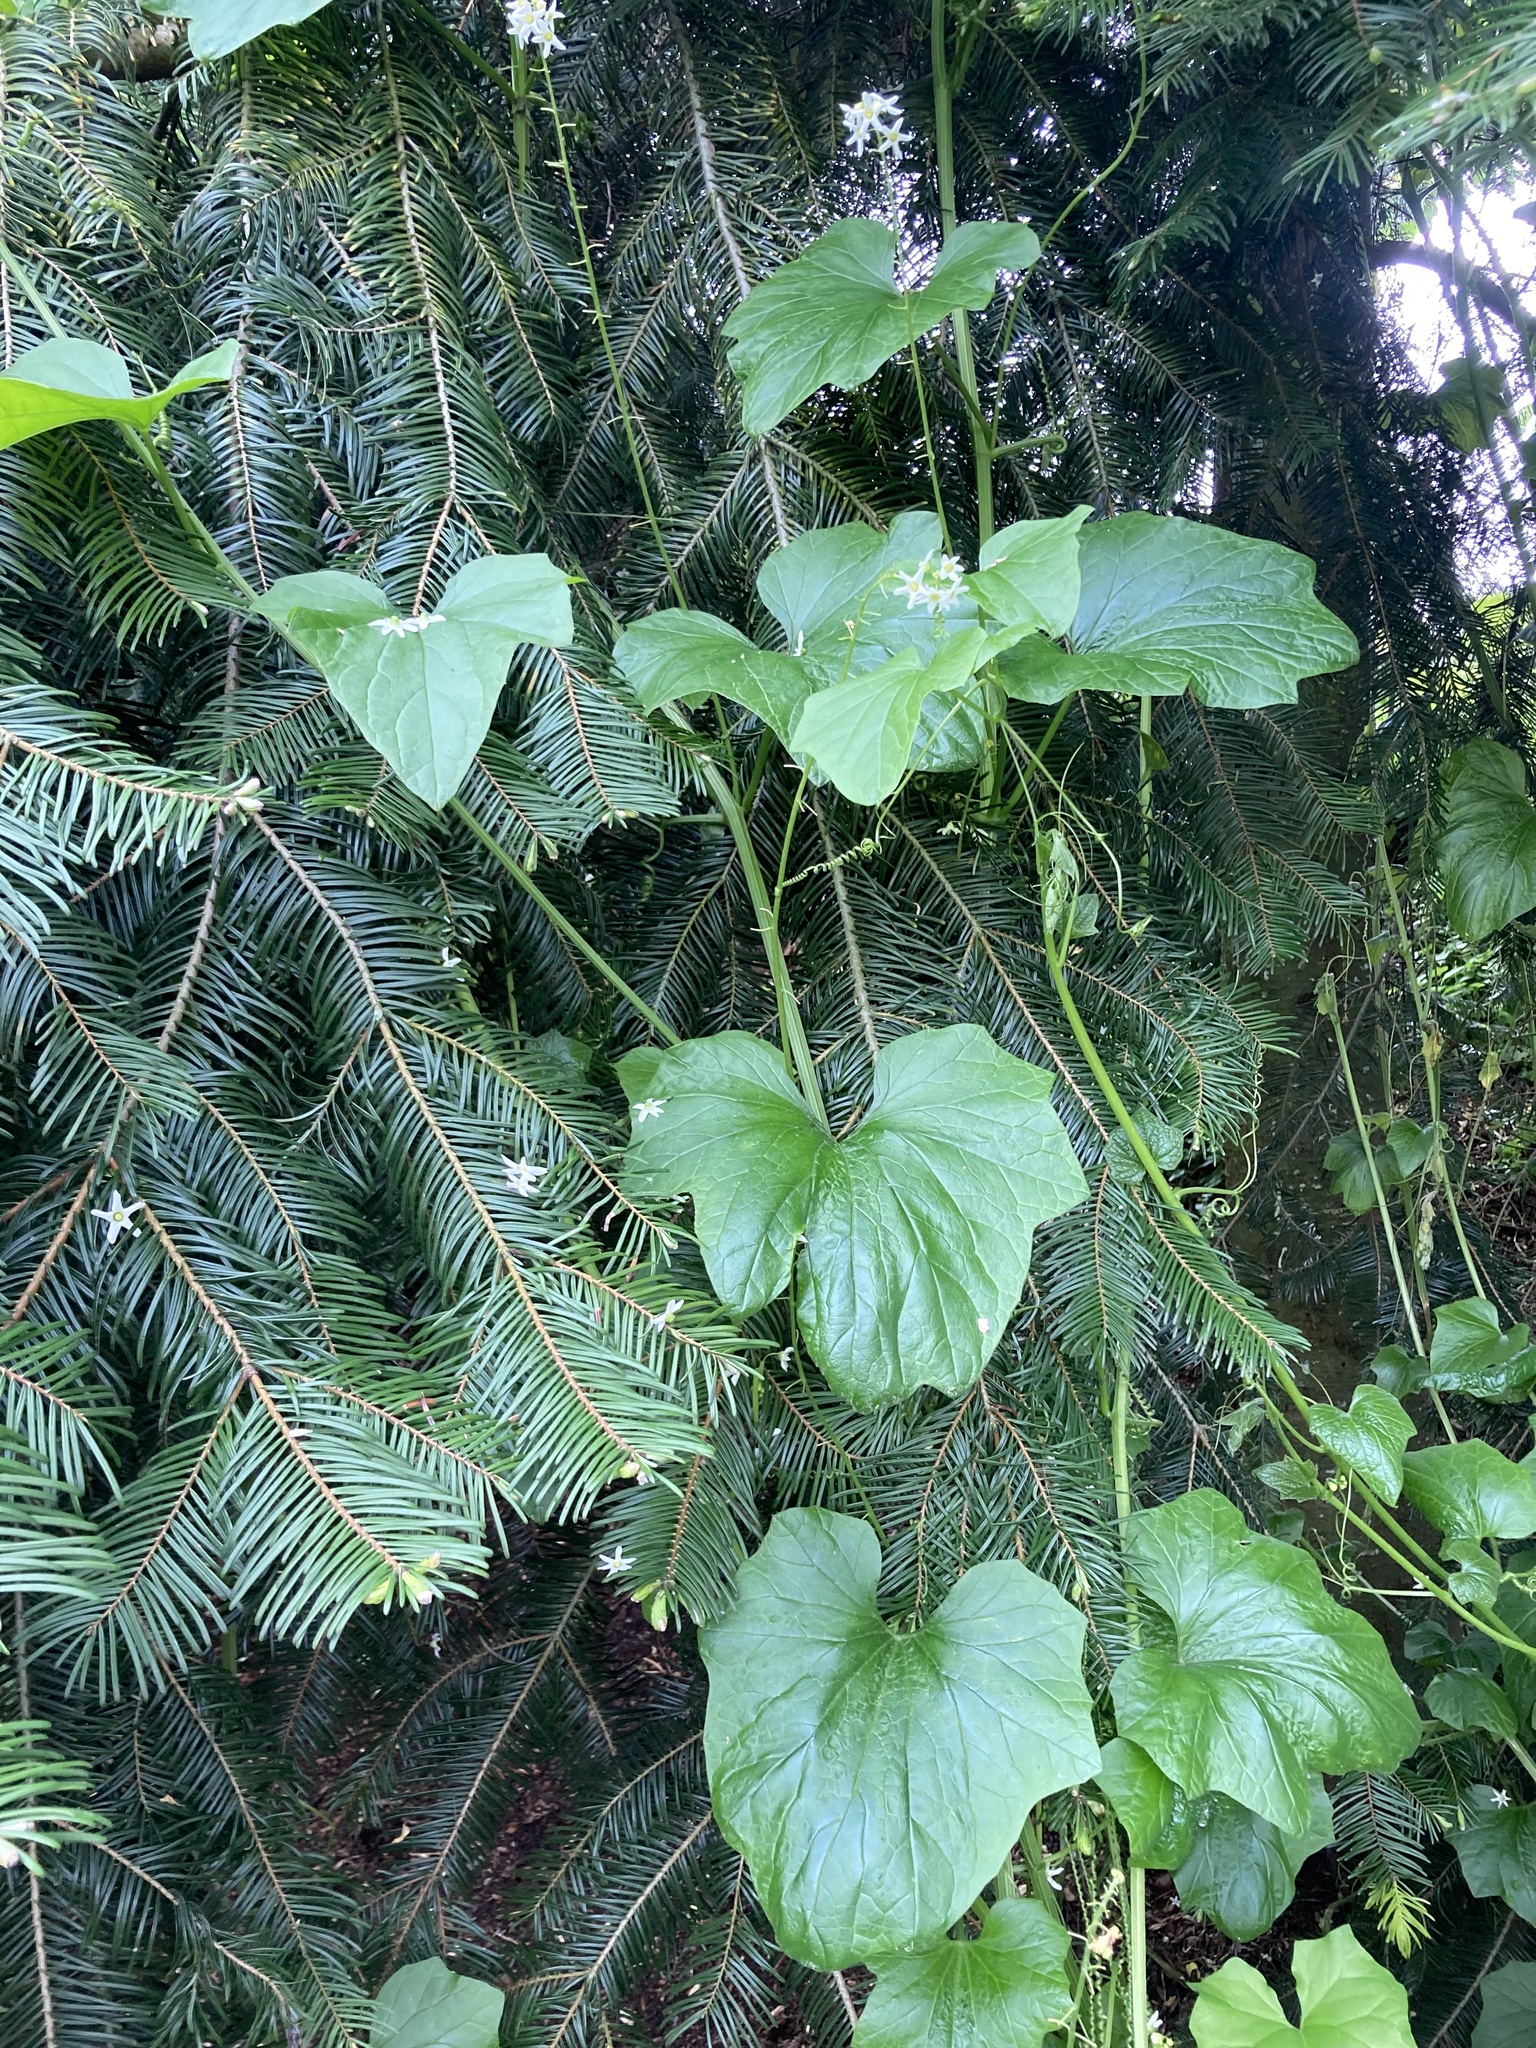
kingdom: Plantae
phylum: Tracheophyta
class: Magnoliopsida
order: Cucurbitales
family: Cucurbitaceae
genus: Marah
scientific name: Marah oregana
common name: Coastal manroot
